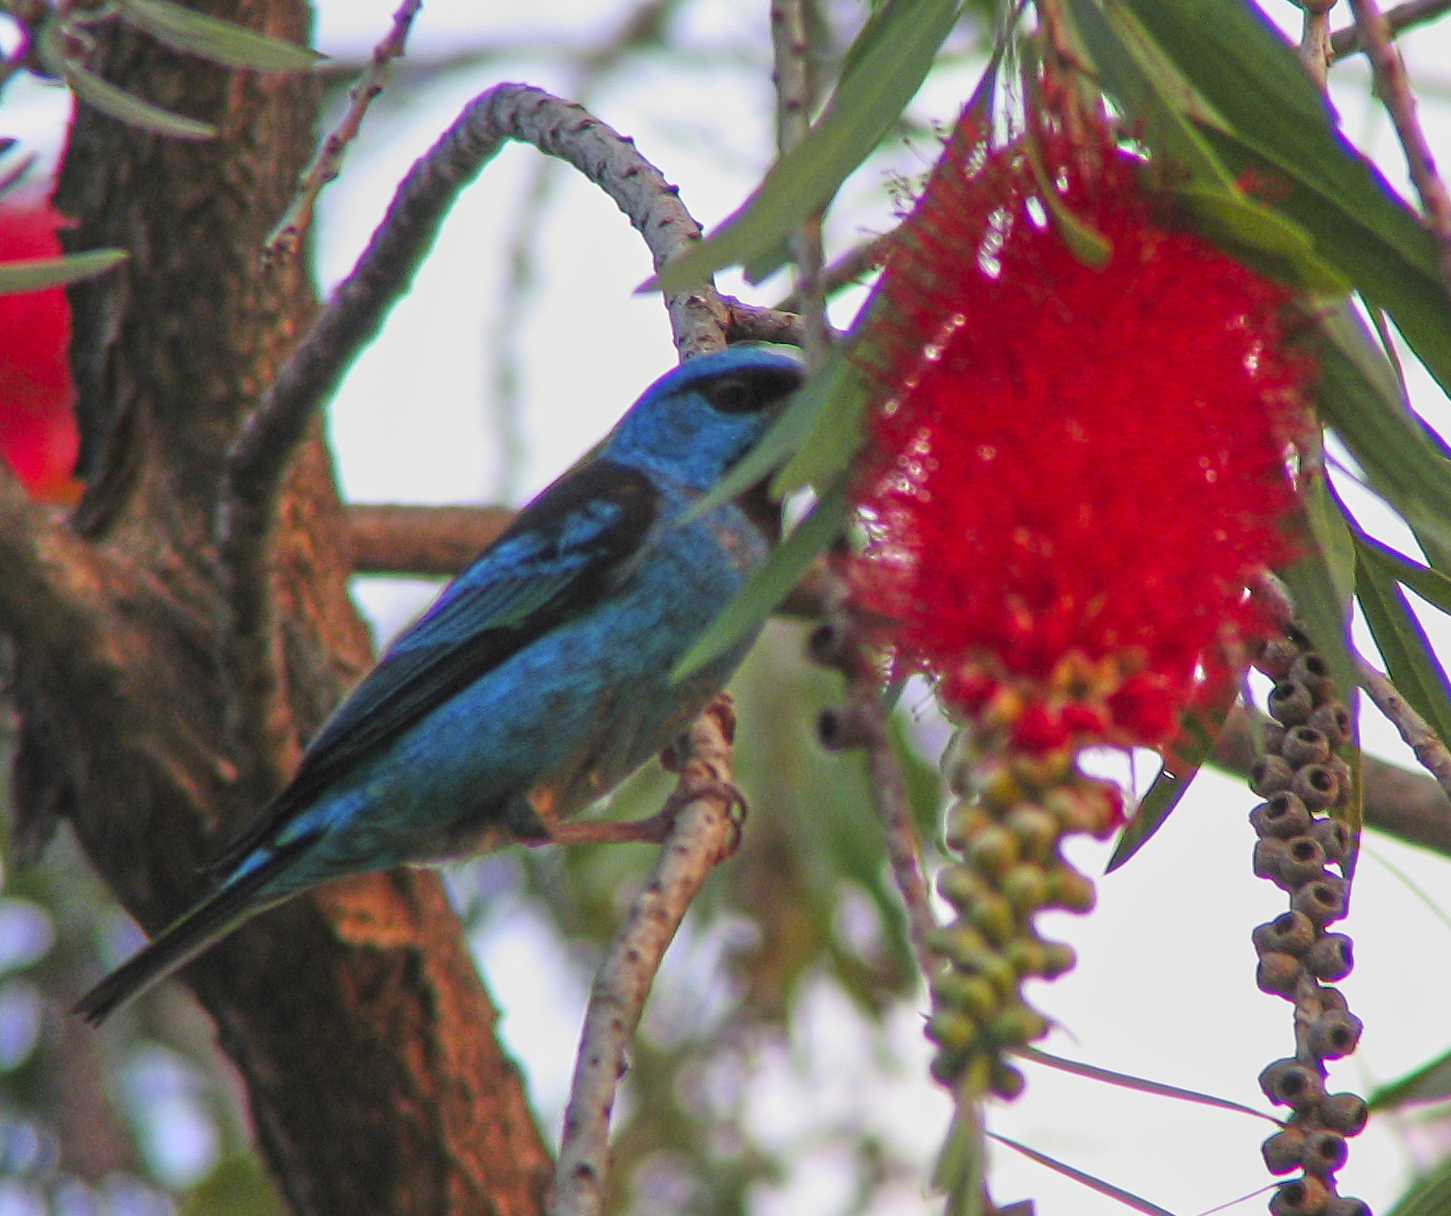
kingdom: Animalia
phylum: Chordata
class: Aves
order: Passeriformes
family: Thraupidae
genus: Dacnis
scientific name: Dacnis cayana
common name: Blue dacnis
